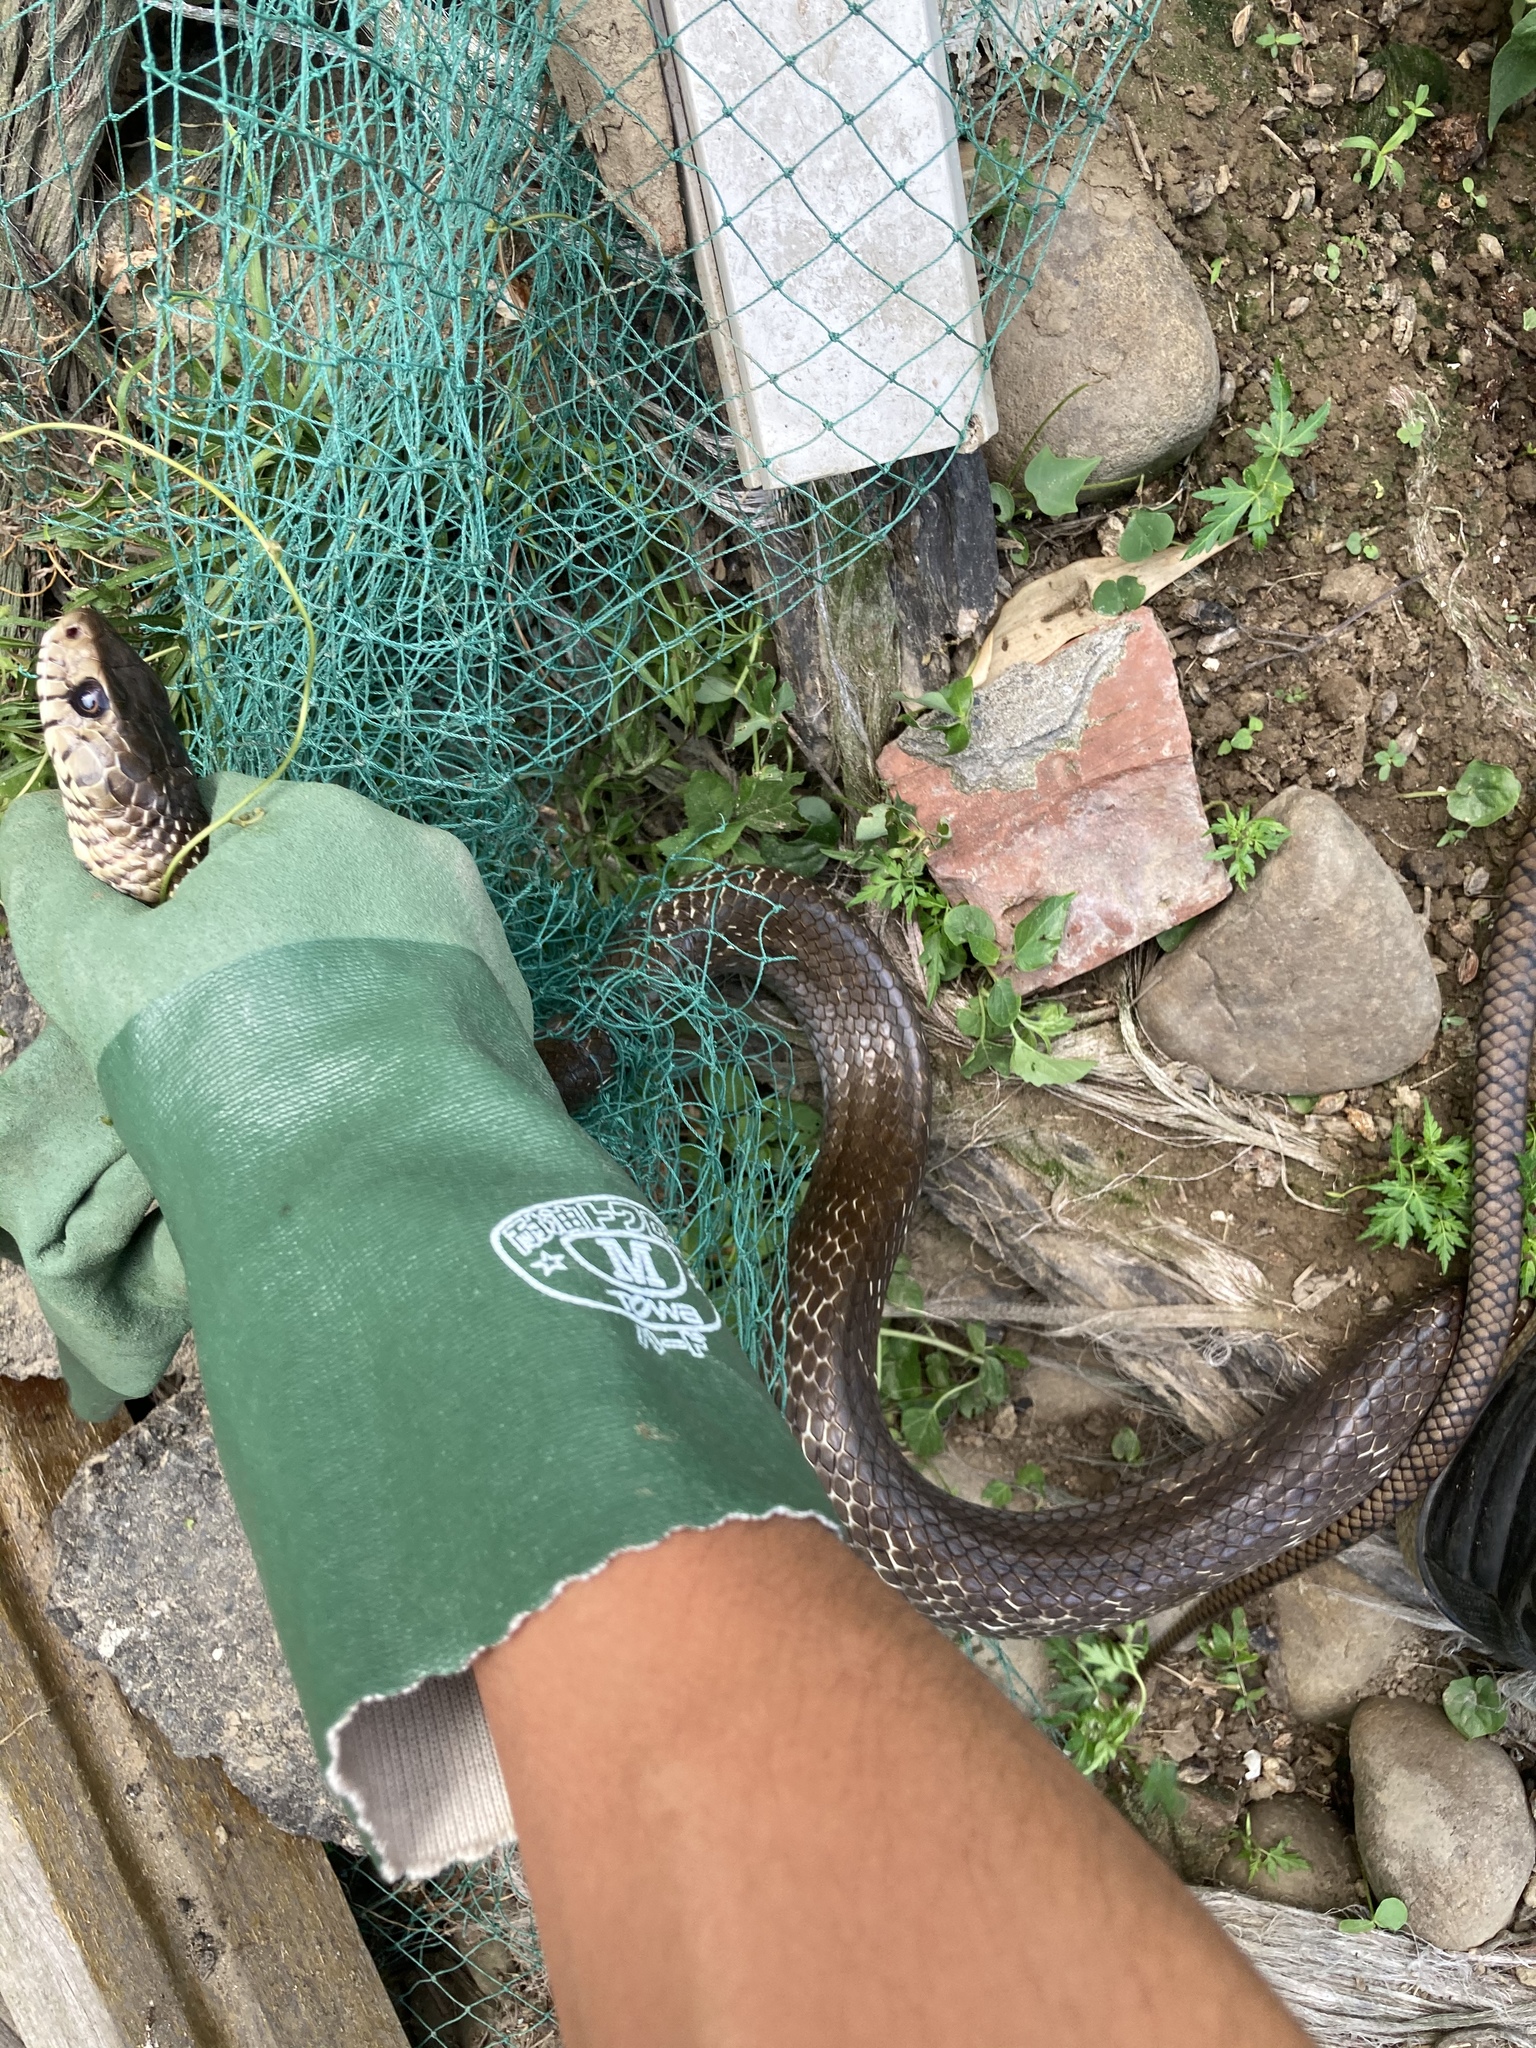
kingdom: Animalia
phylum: Chordata
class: Squamata
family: Colubridae
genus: Ptyas
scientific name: Ptyas mucosa
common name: Oriental ratsnake
